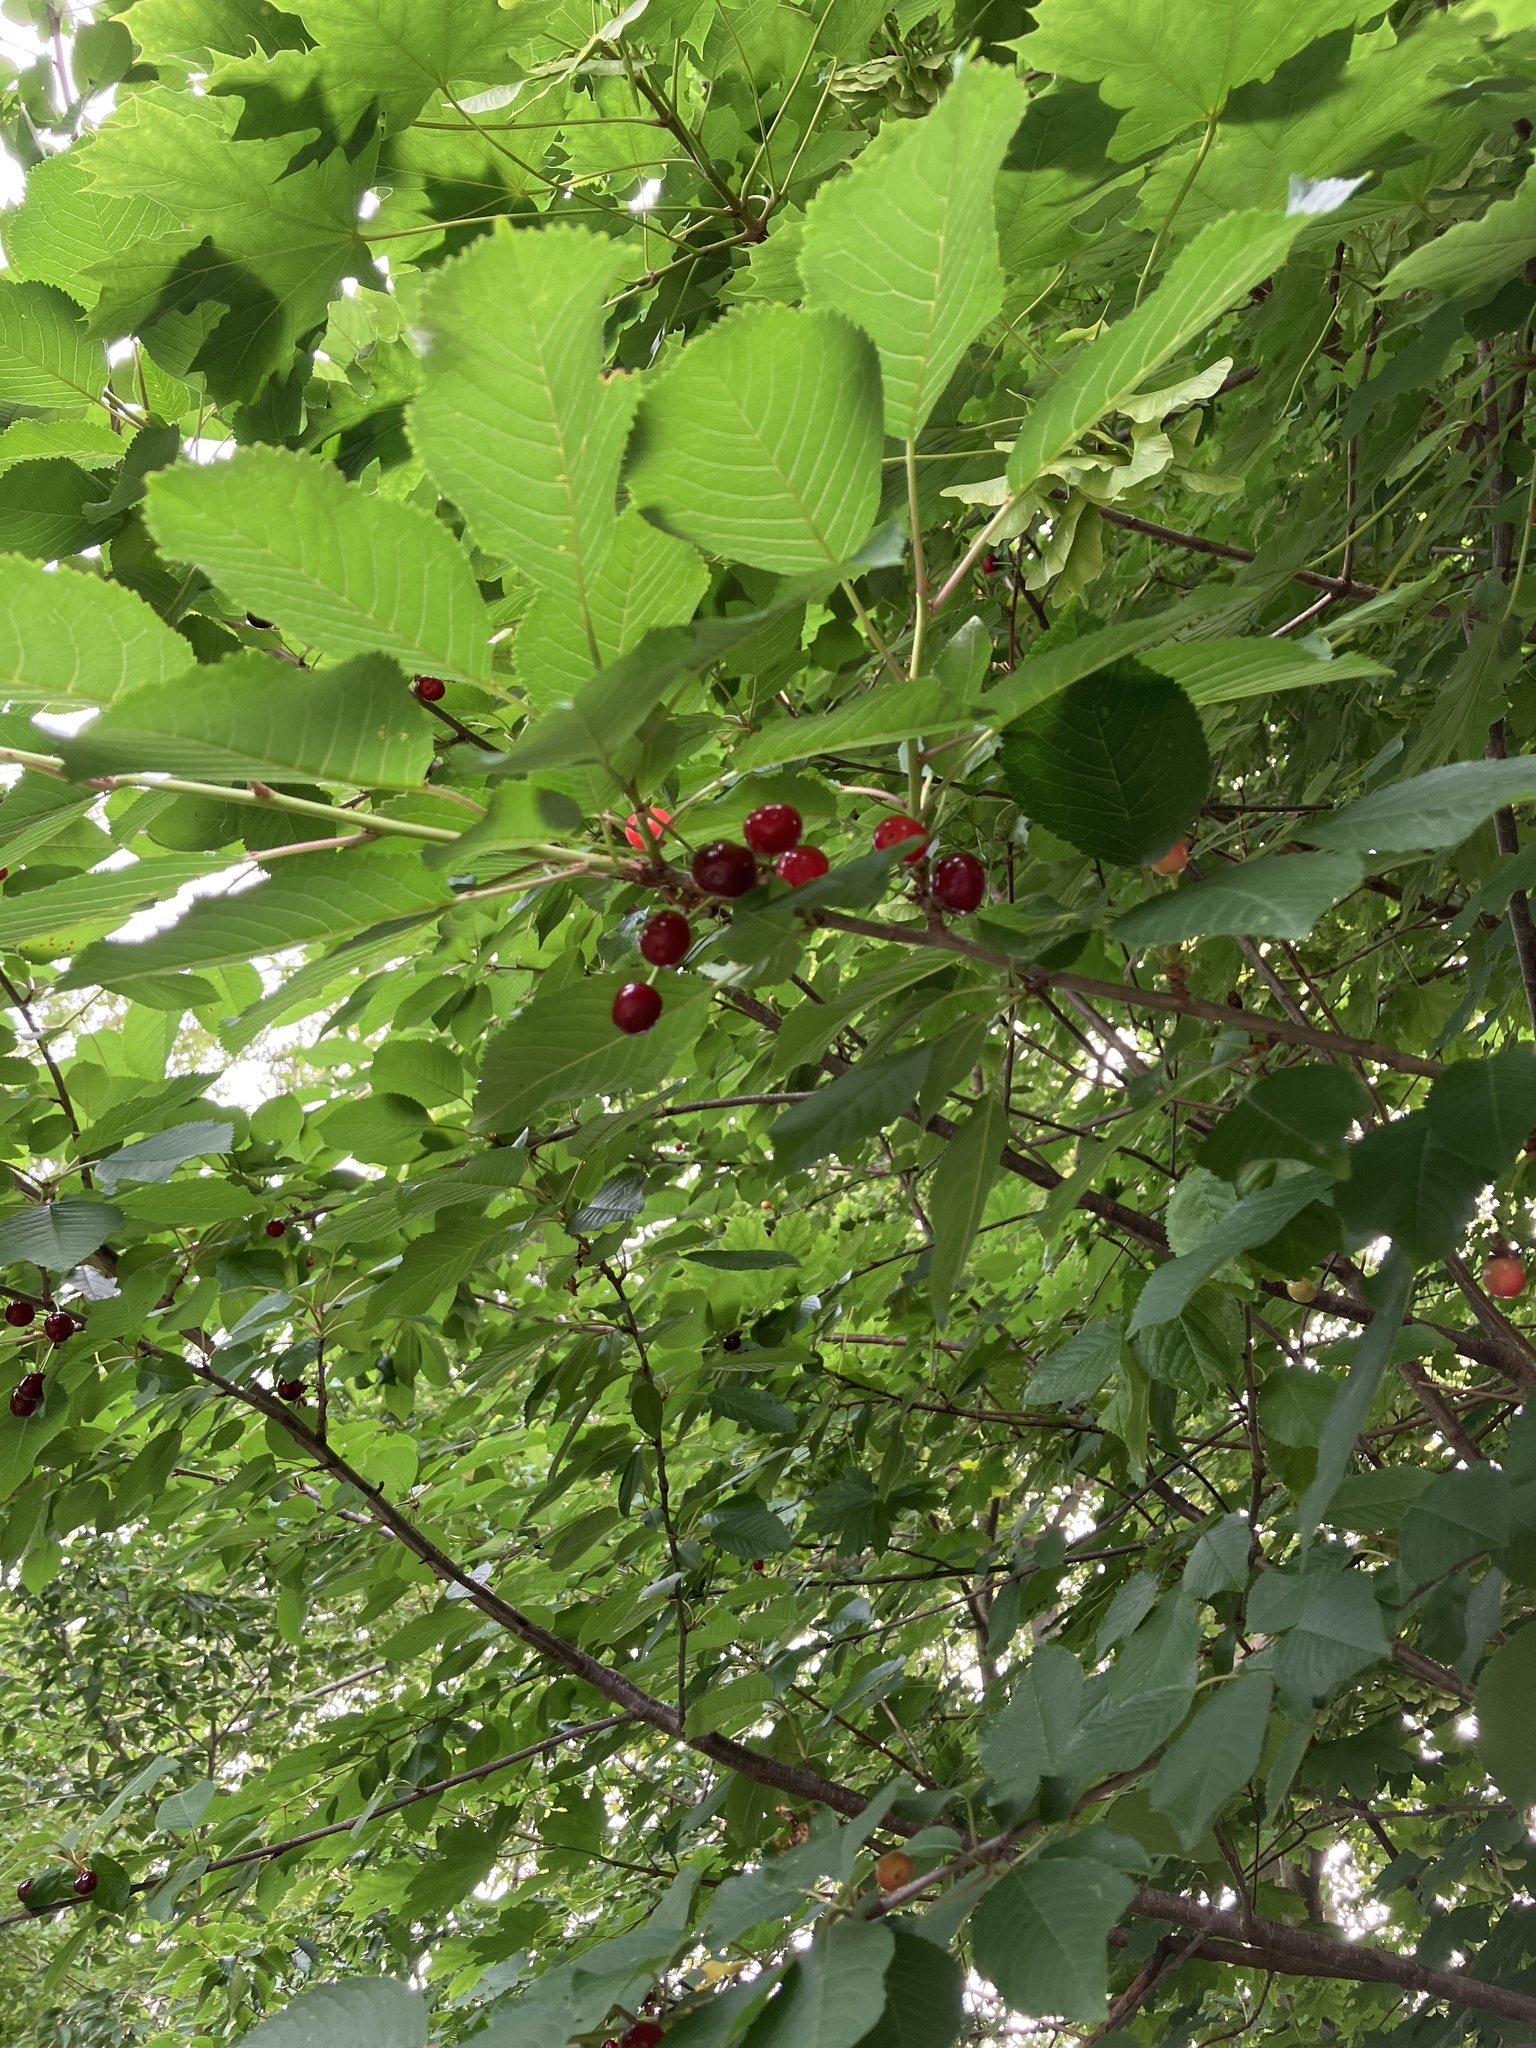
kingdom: Plantae
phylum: Tracheophyta
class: Magnoliopsida
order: Rosales
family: Rosaceae
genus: Prunus
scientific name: Prunus avium
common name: Sweet cherry
